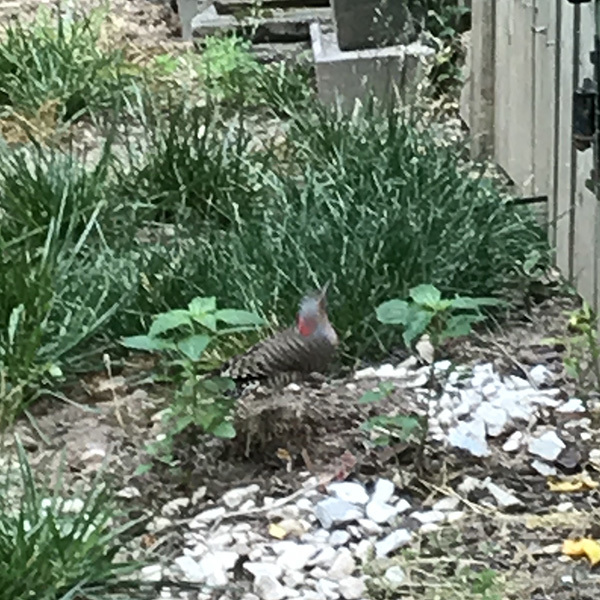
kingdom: Animalia
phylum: Chordata
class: Aves
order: Piciformes
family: Picidae
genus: Colaptes
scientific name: Colaptes auratus
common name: Northern flicker
